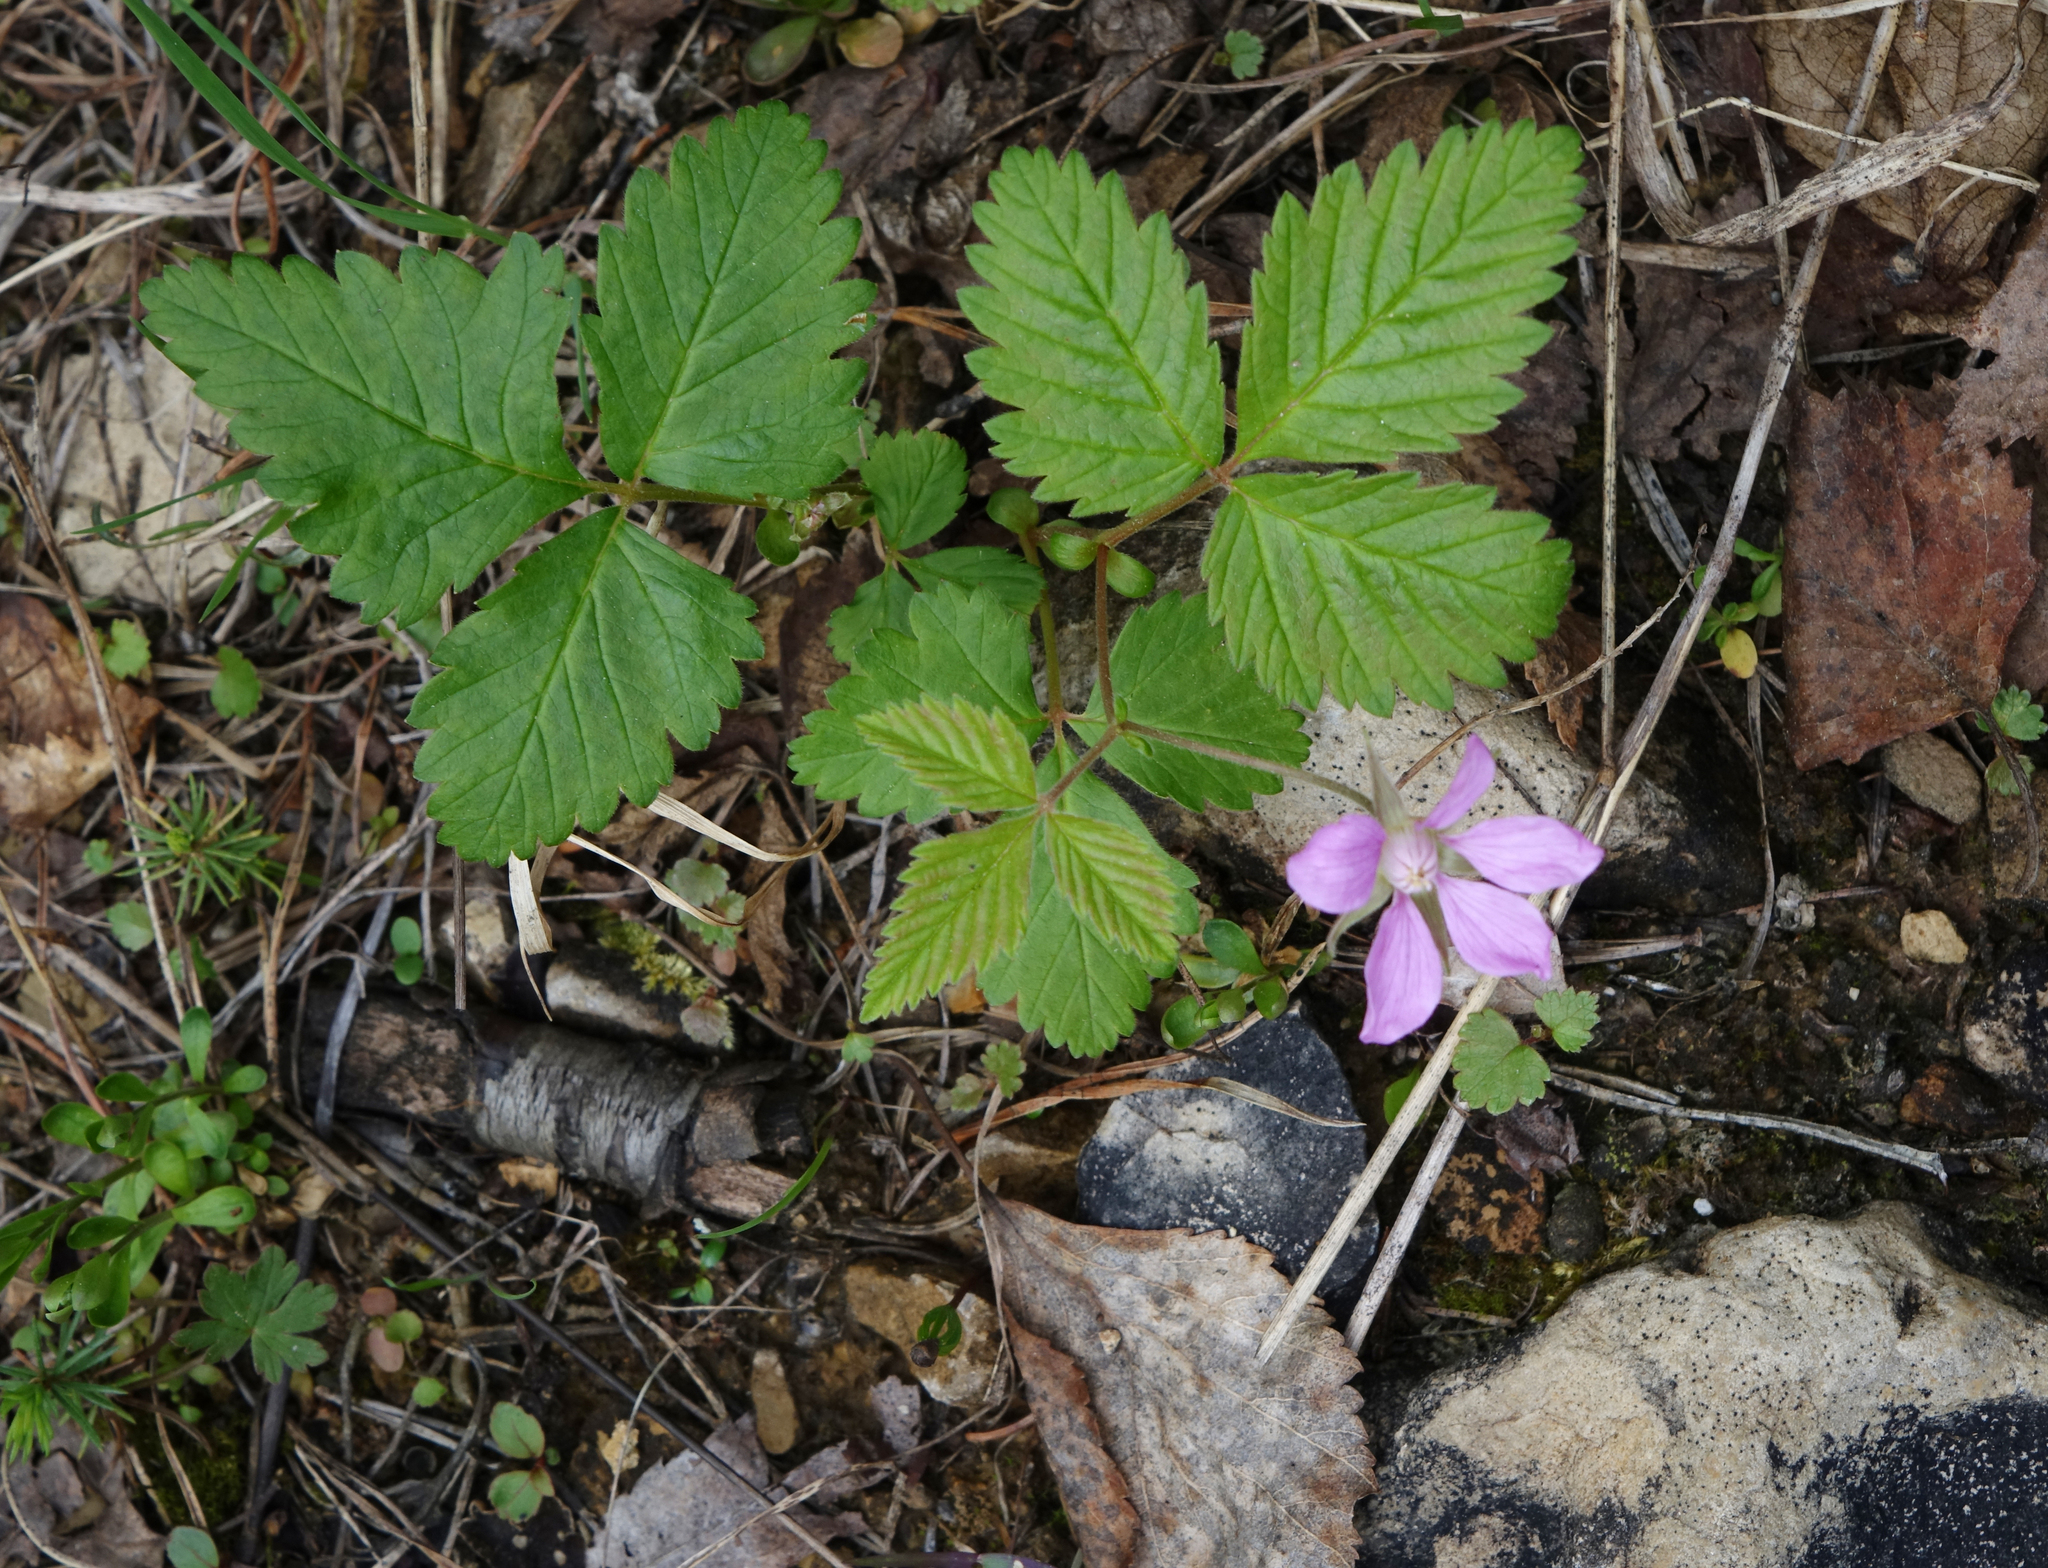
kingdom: Plantae
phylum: Tracheophyta
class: Magnoliopsida
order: Rosales
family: Rosaceae
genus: Rubus
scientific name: Rubus arcticus
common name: Arctic bramble
